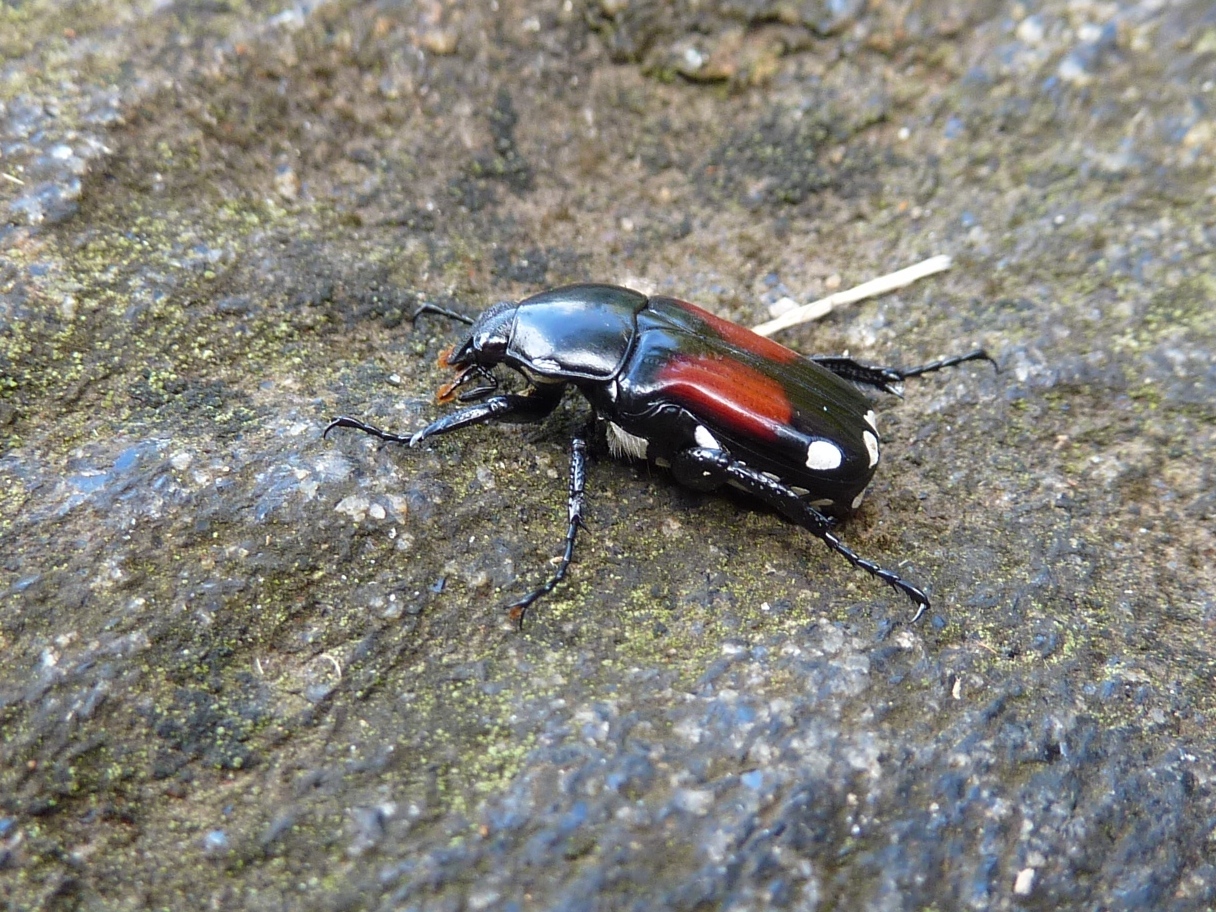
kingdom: Animalia
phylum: Arthropoda
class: Insecta
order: Coleoptera
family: Scarabaeidae
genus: Pygora
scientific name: Pygora ornata
